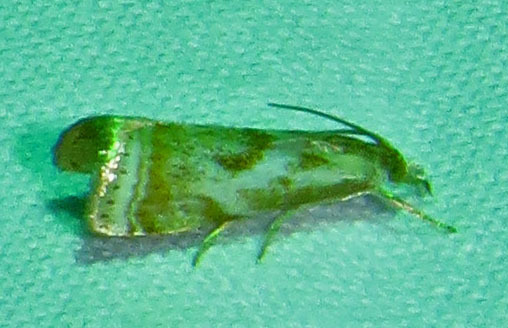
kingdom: Animalia
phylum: Arthropoda
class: Insecta
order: Lepidoptera
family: Crambidae
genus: Microcrambus
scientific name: Microcrambus elegans
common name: Elegant grass-veneer
